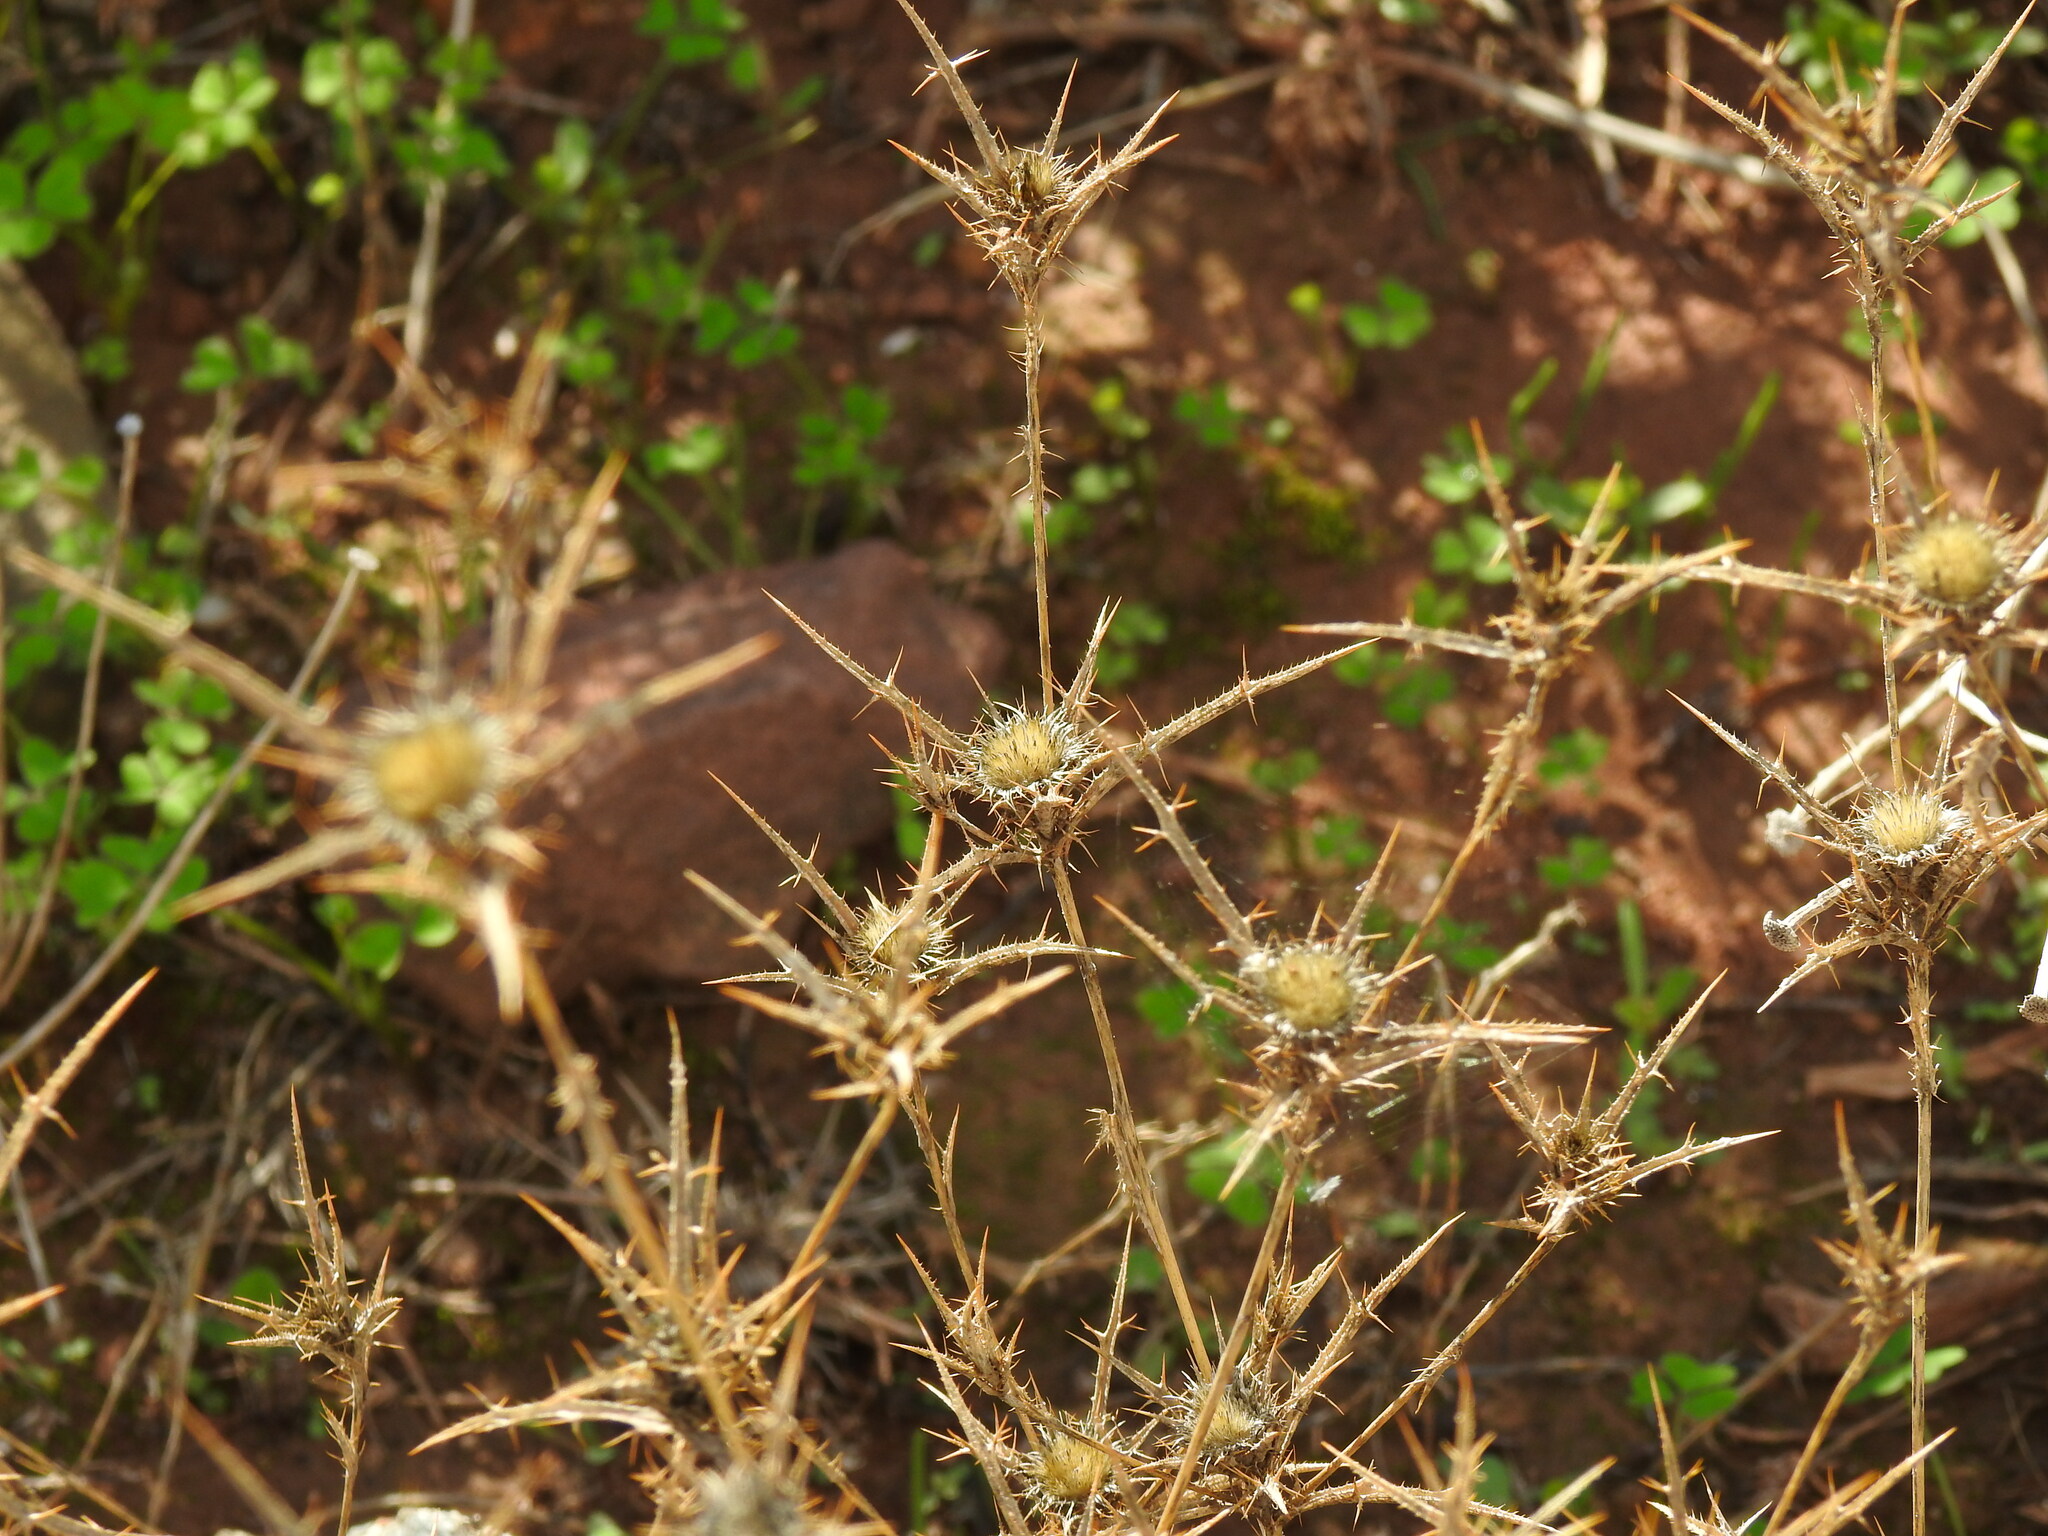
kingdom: Plantae
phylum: Tracheophyta
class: Magnoliopsida
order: Asterales
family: Asteraceae
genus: Carlina
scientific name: Carlina racemosa
